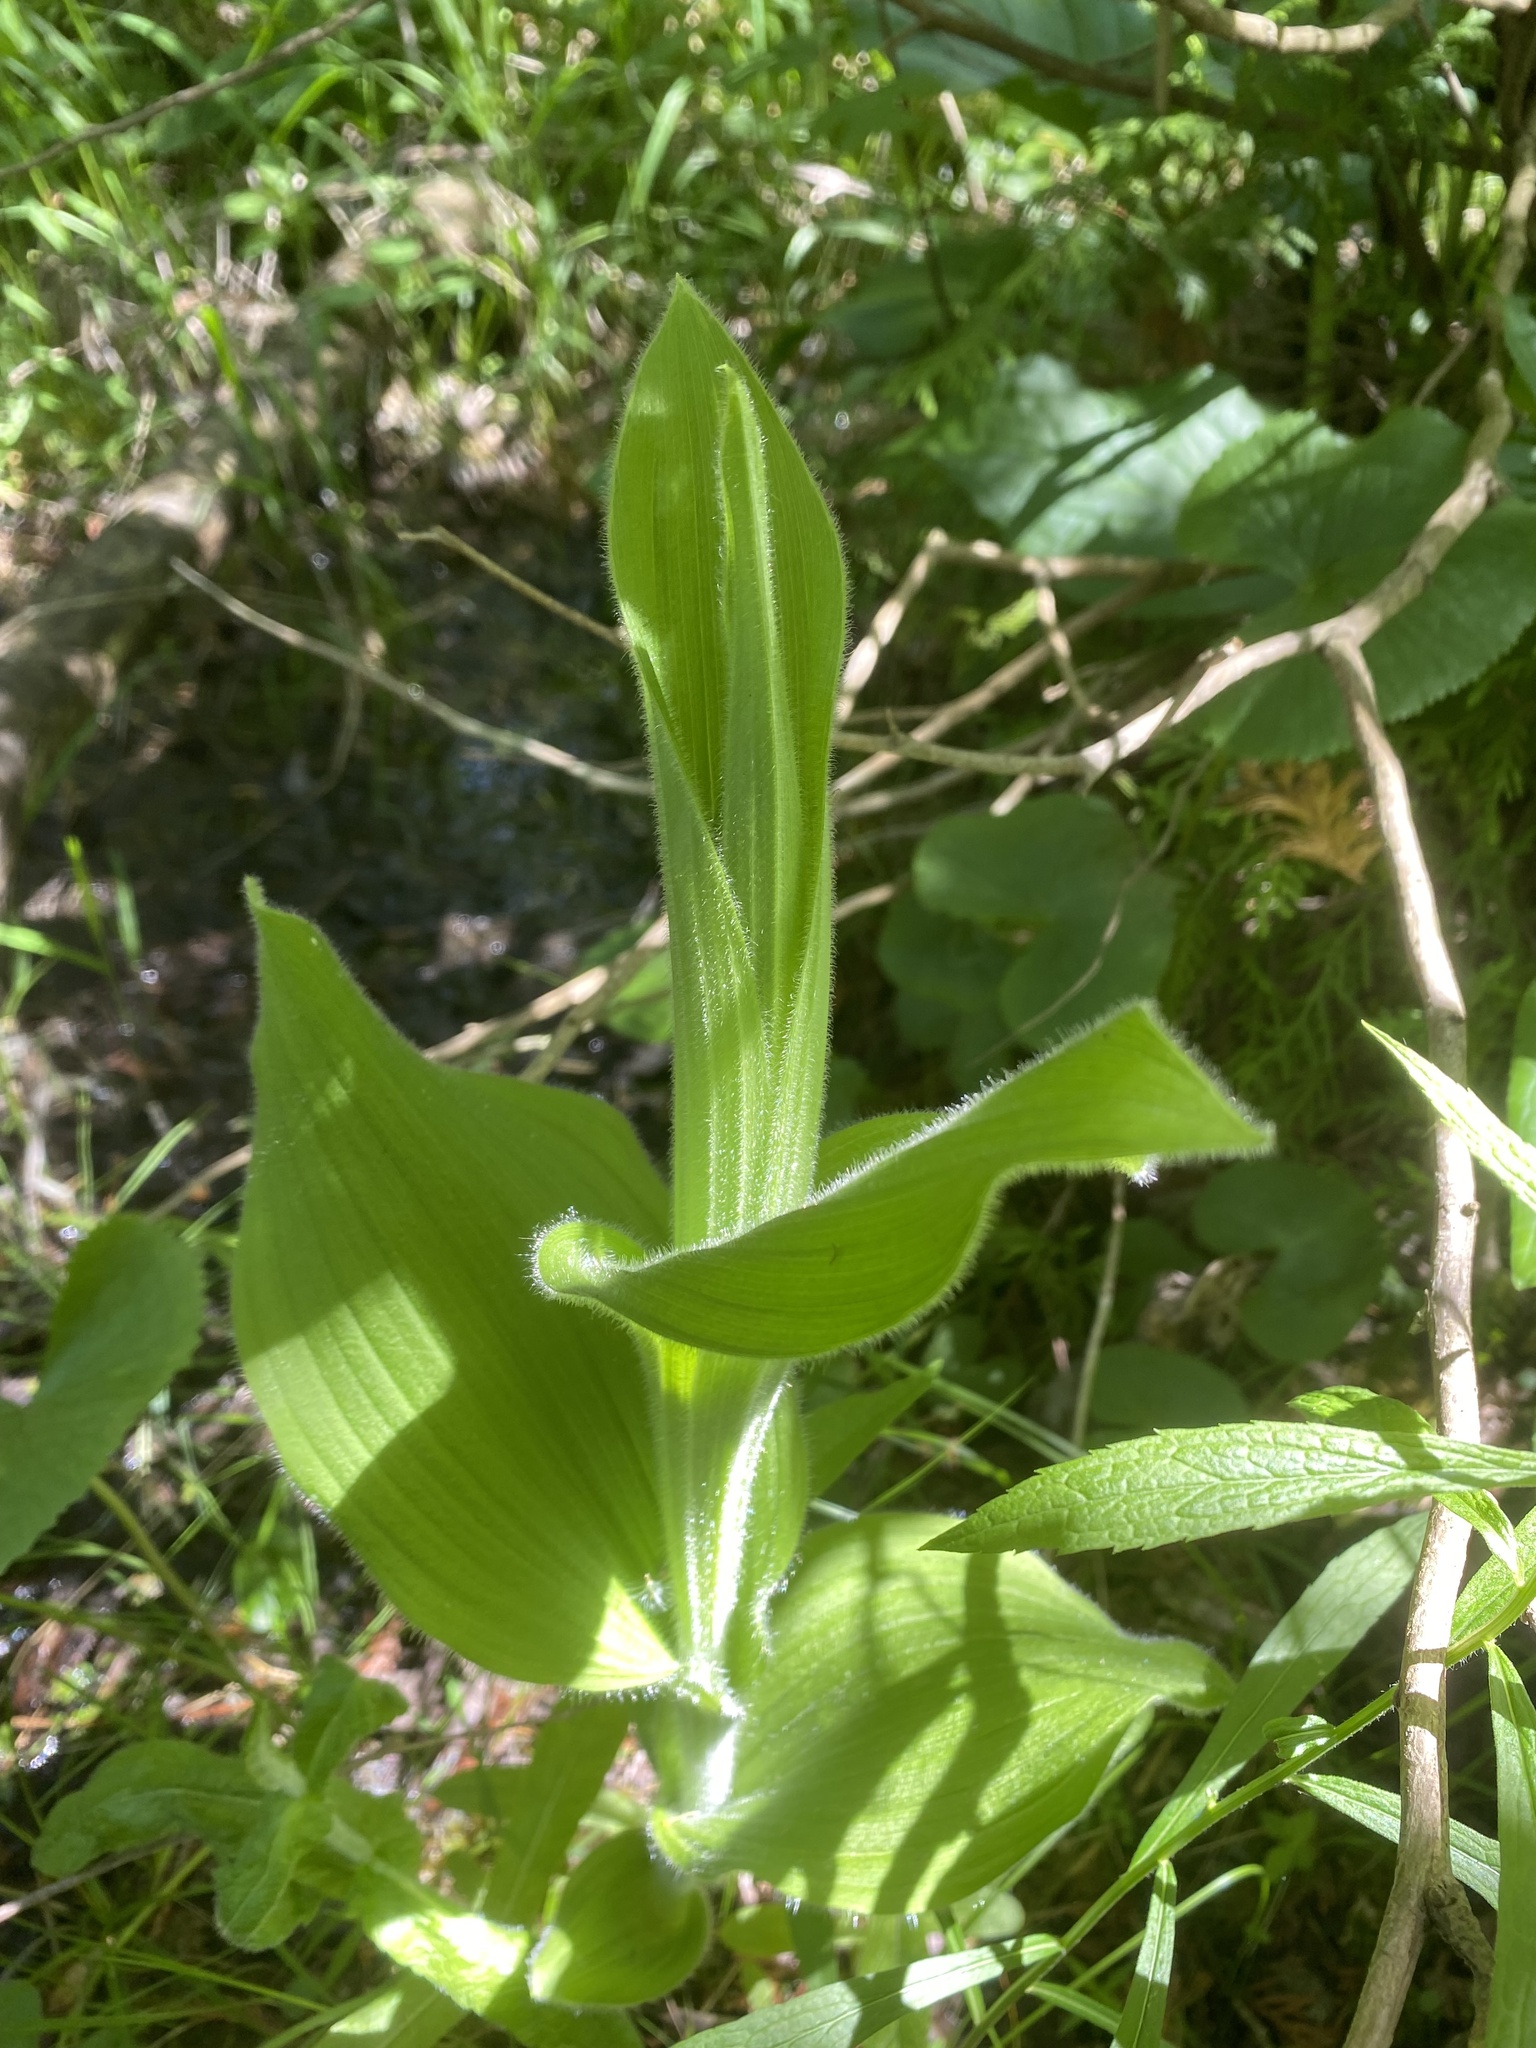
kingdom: Plantae
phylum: Tracheophyta
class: Liliopsida
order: Asparagales
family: Orchidaceae
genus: Cypripedium
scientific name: Cypripedium reginae
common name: Queen lady's-slipper
